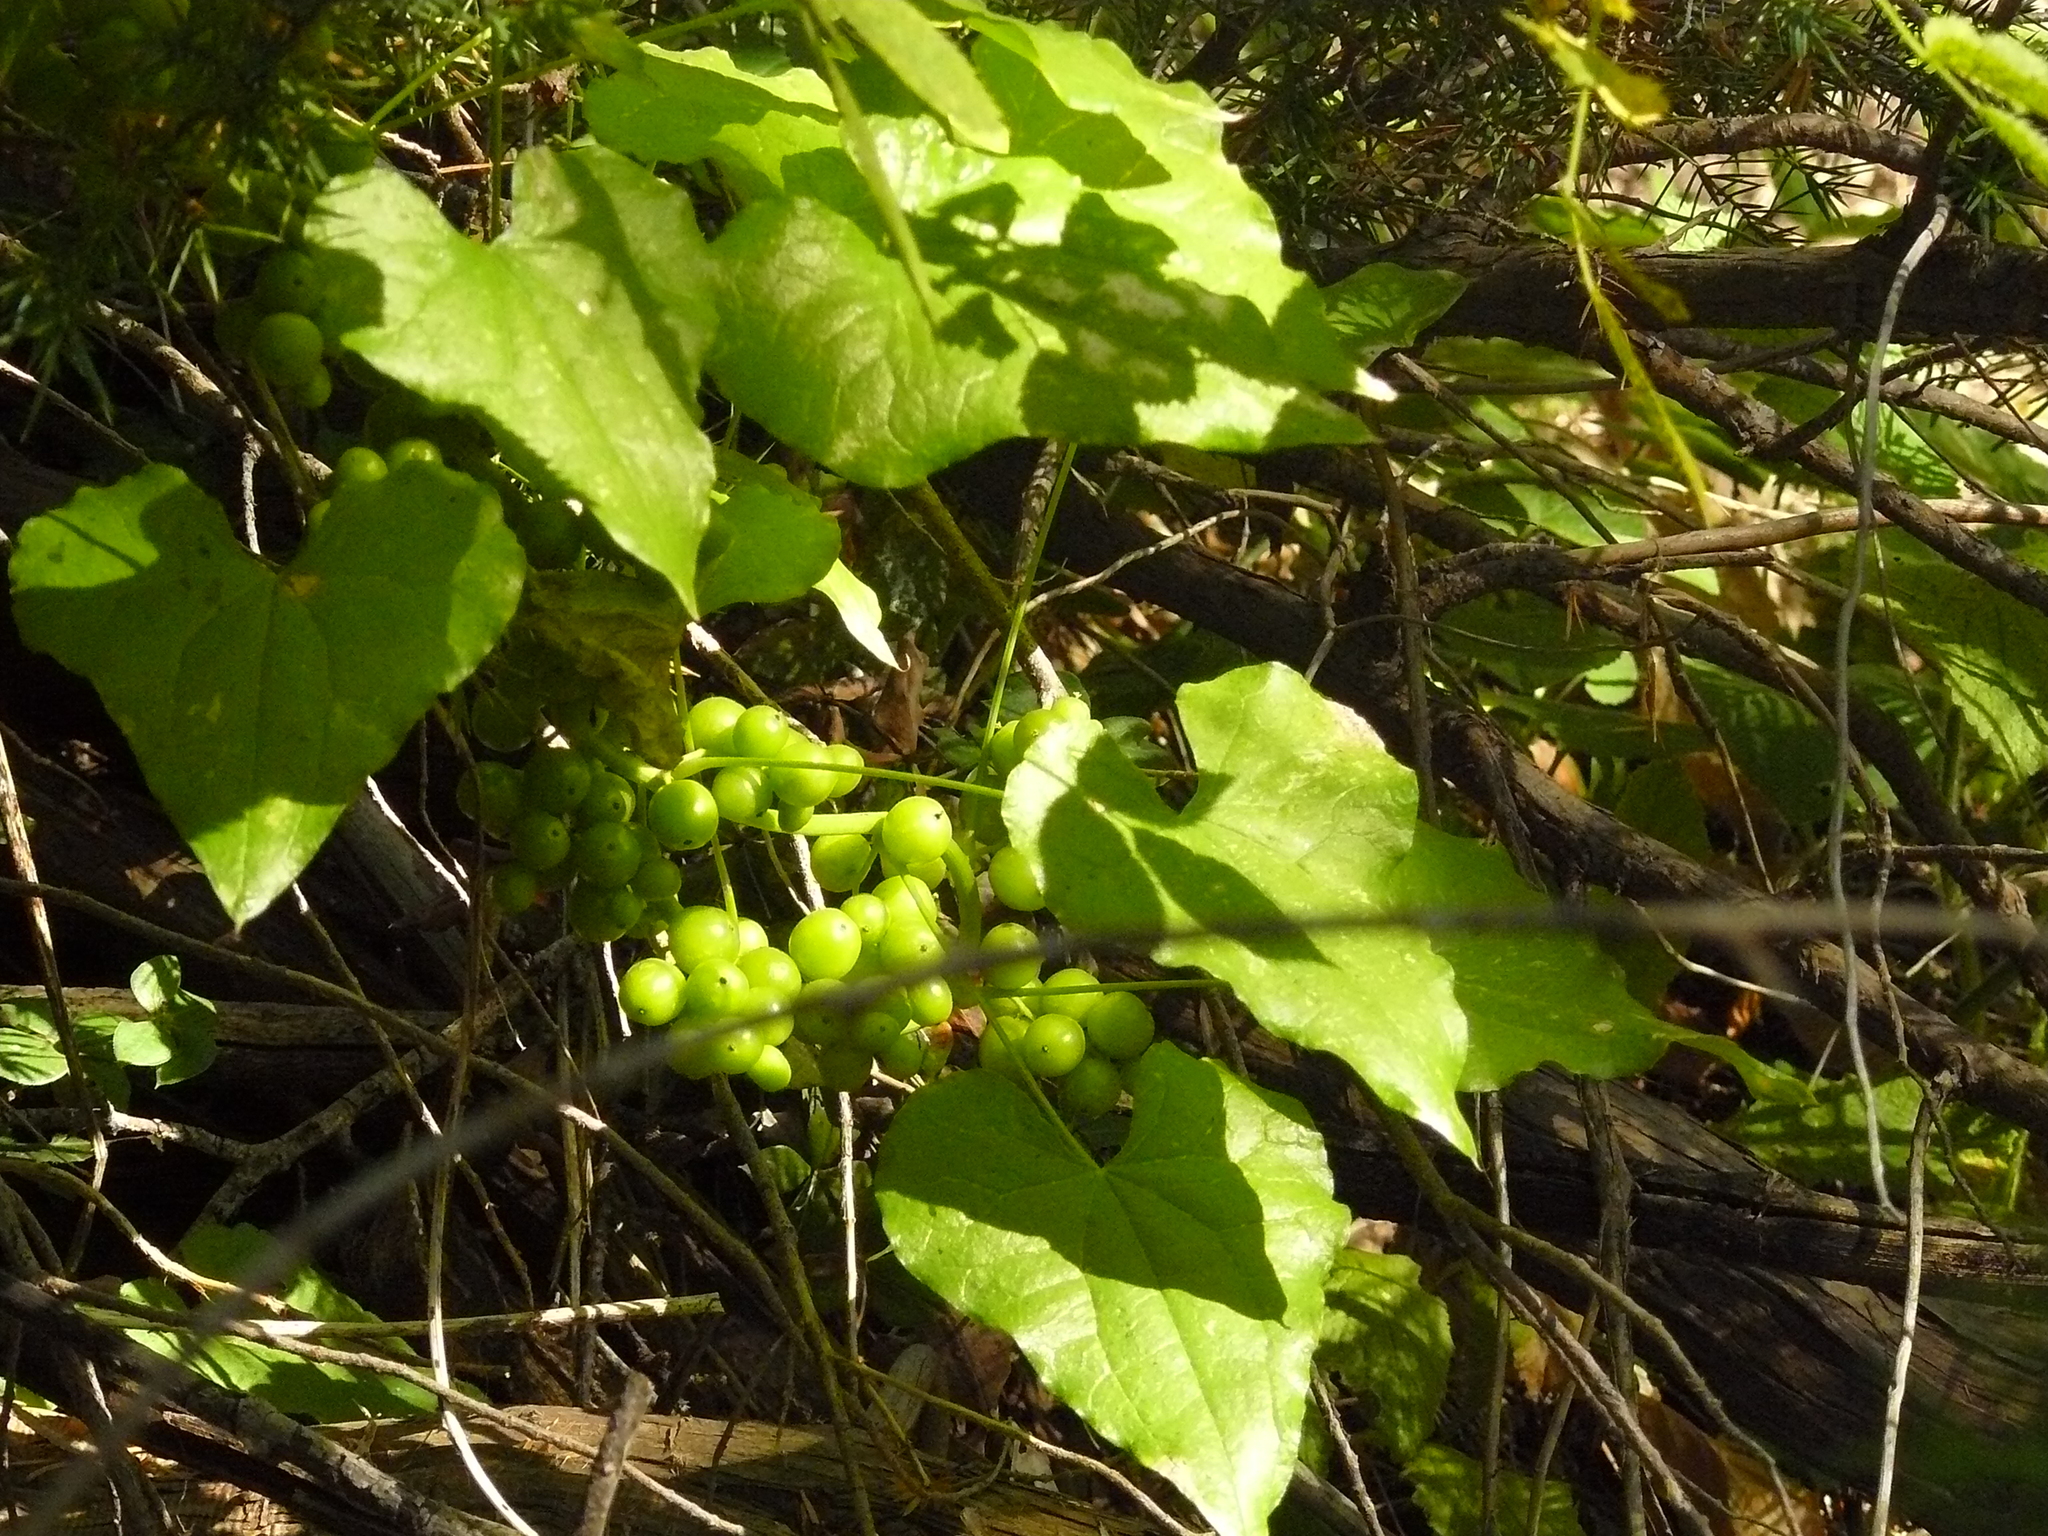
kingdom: Plantae
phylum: Tracheophyta
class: Liliopsida
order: Dioscoreales
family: Dioscoreaceae
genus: Dioscorea
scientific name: Dioscorea communis
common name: Black-bindweed
